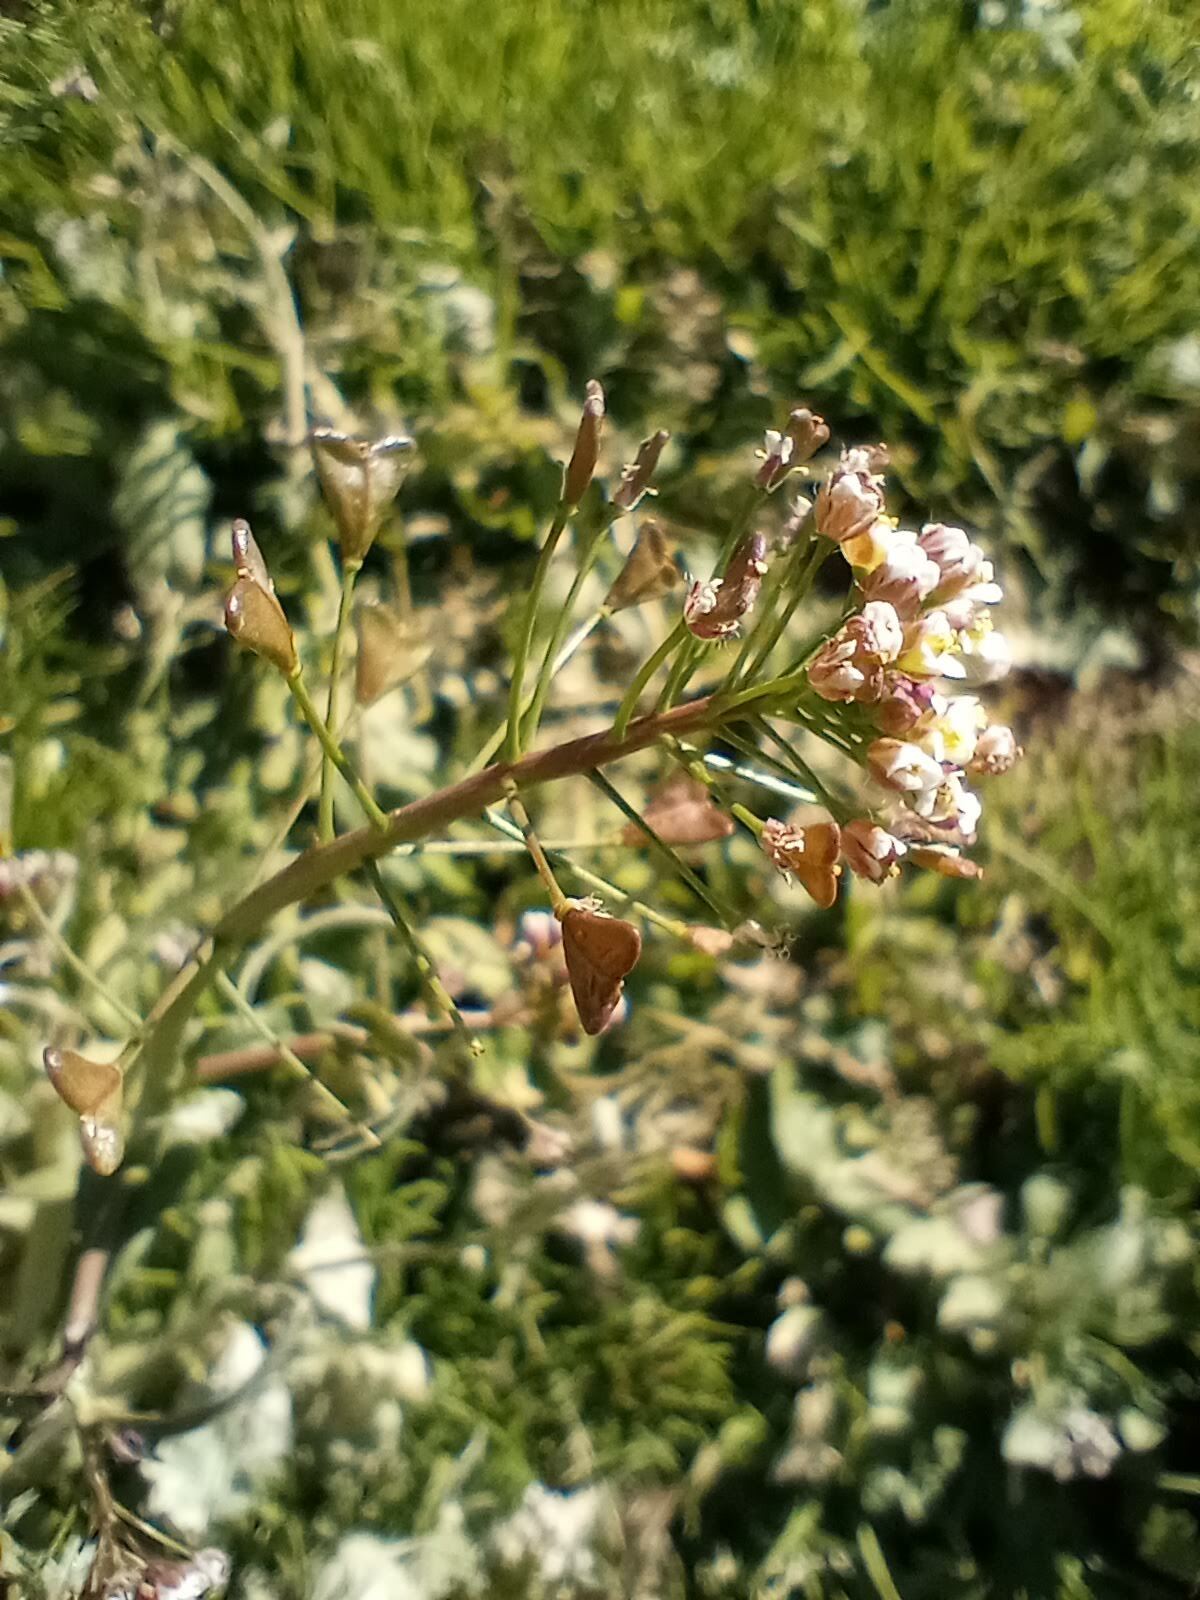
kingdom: Plantae
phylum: Tracheophyta
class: Magnoliopsida
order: Brassicales
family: Brassicaceae
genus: Capsella
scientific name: Capsella bursa-pastoris
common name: Shepherd's purse
